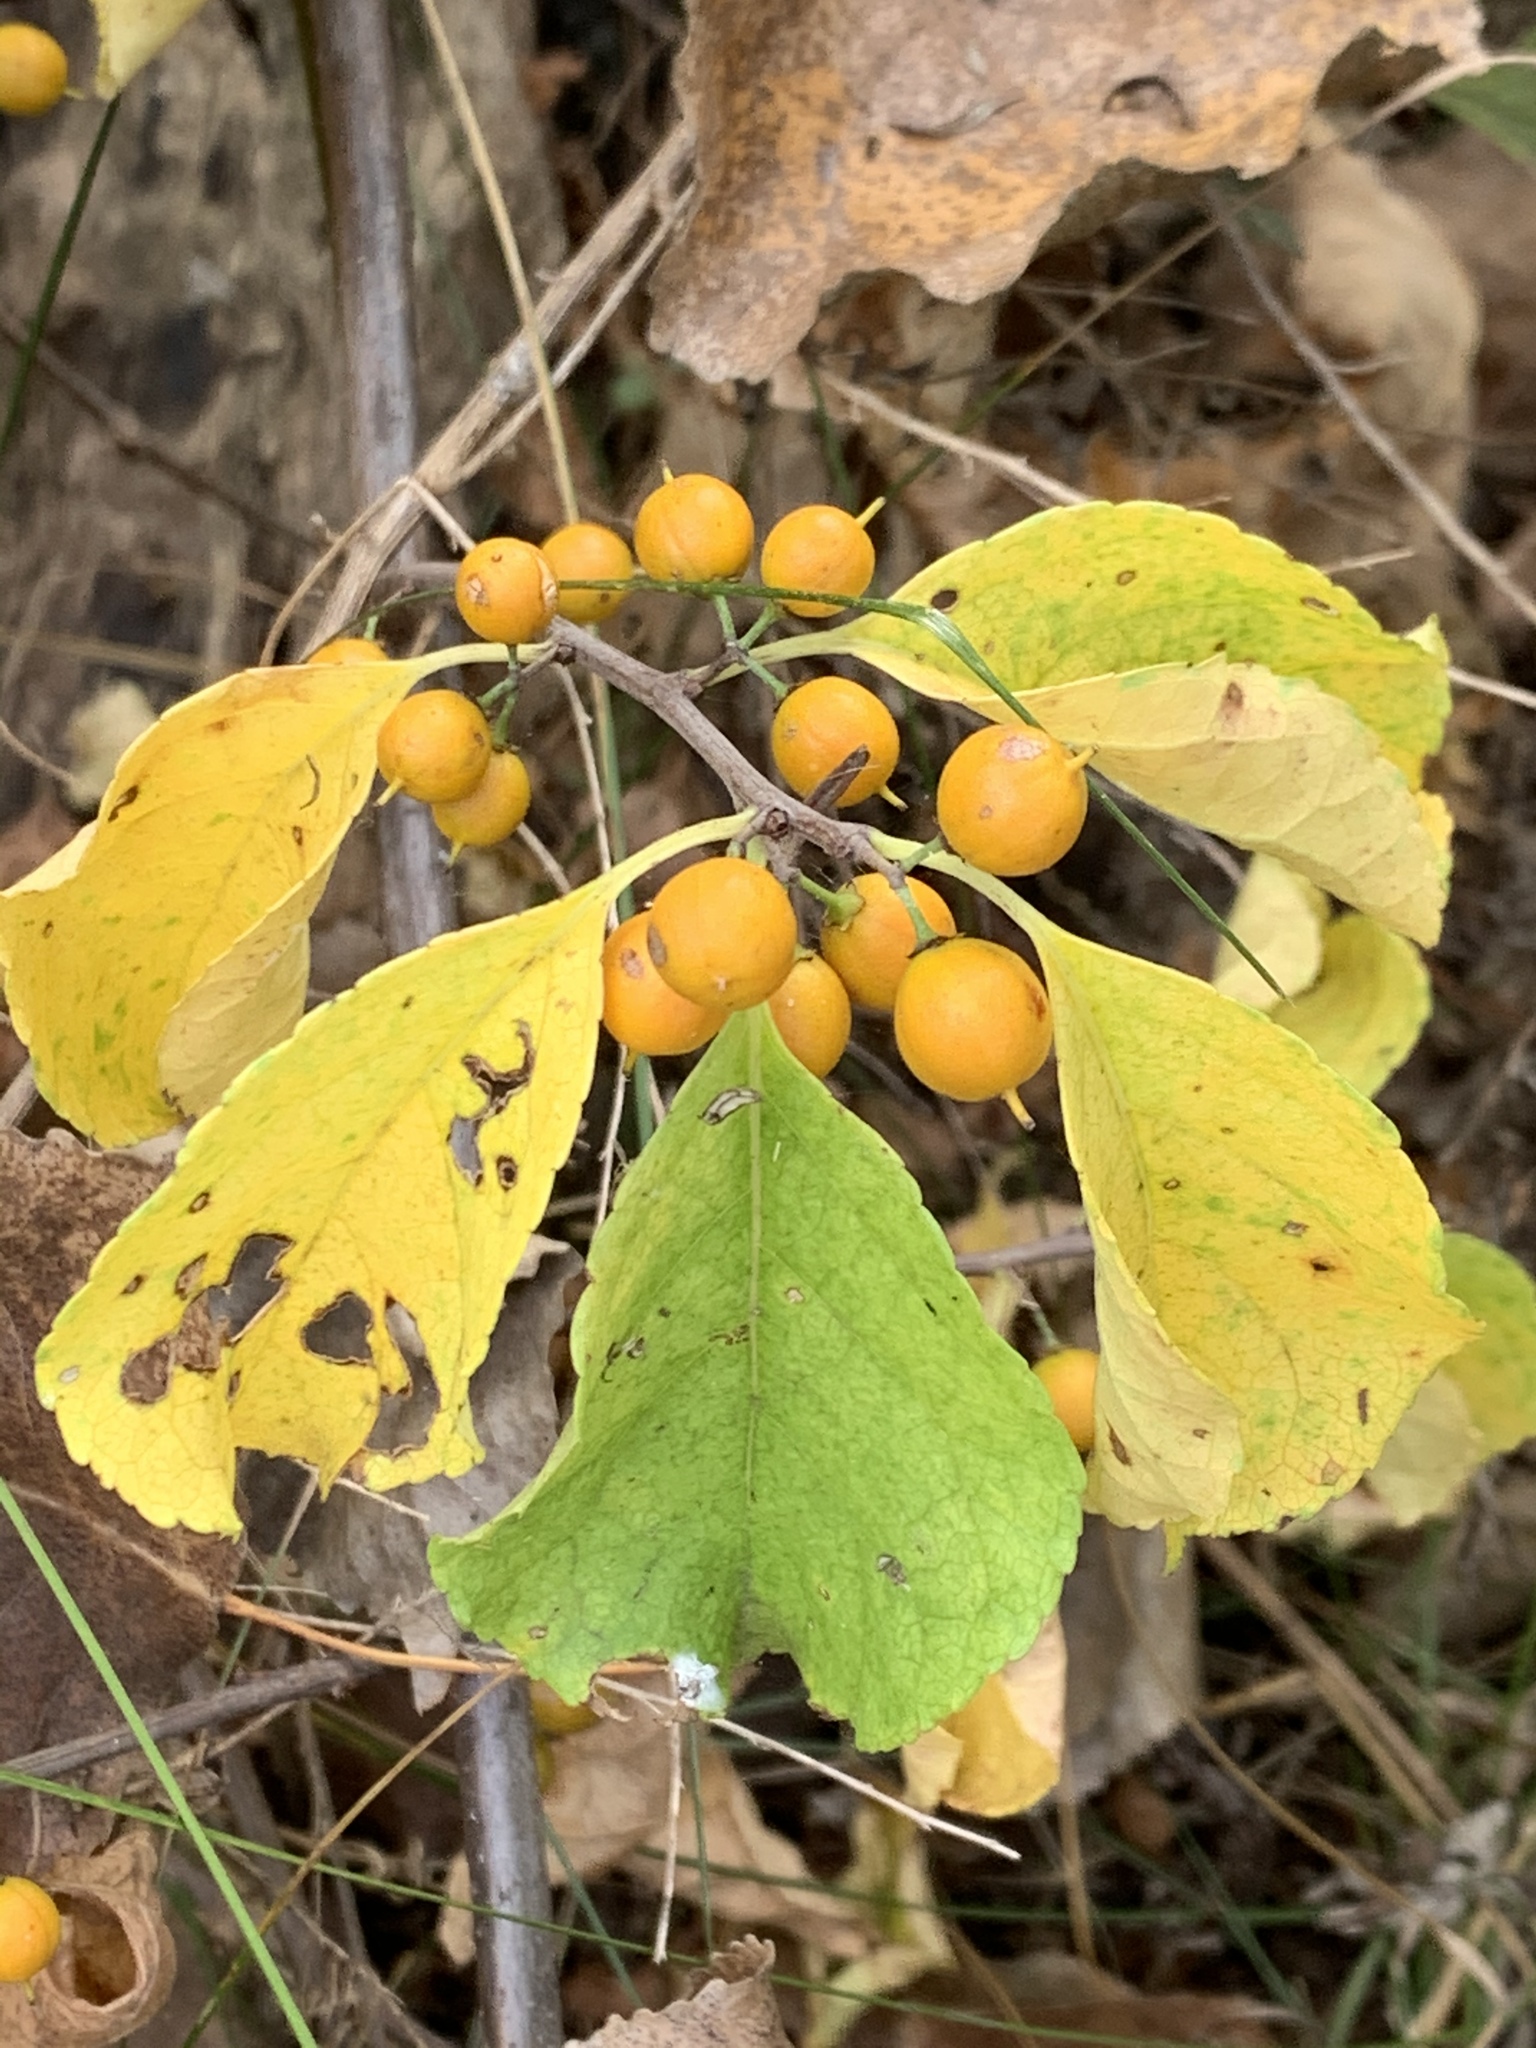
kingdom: Plantae
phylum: Tracheophyta
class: Magnoliopsida
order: Celastrales
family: Celastraceae
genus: Celastrus
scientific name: Celastrus orbiculatus
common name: Oriental bittersweet
